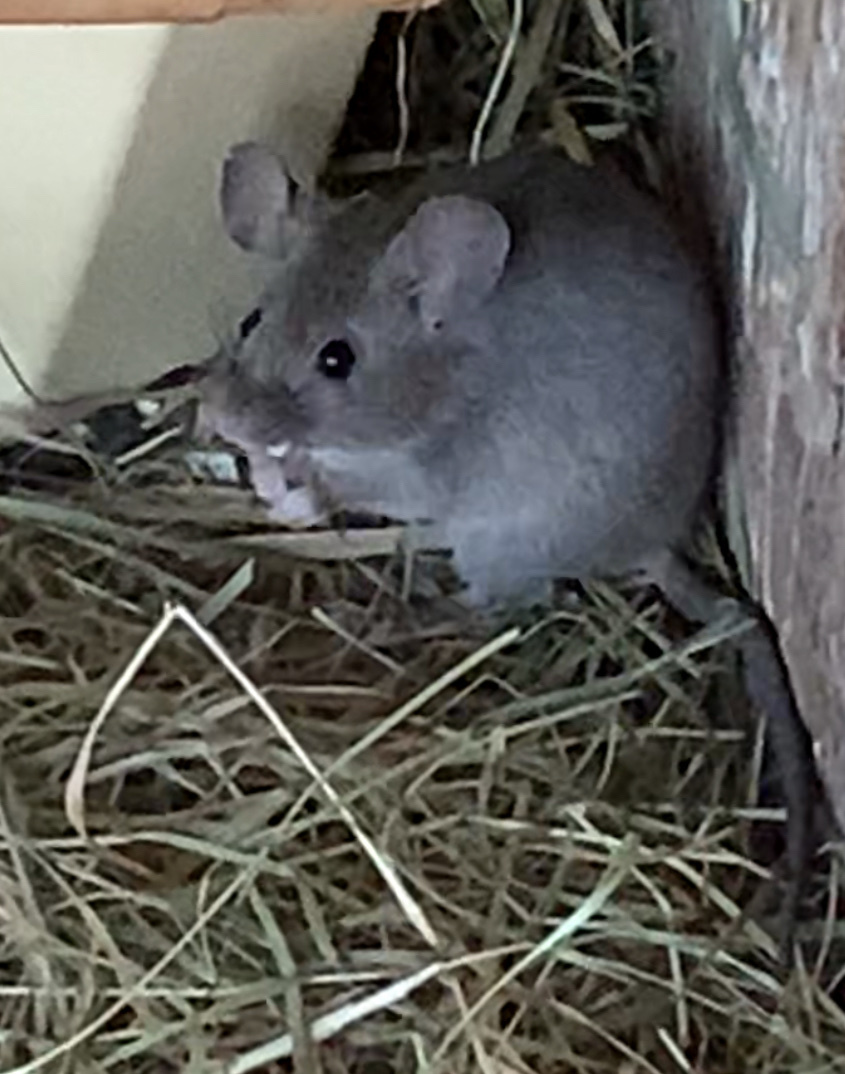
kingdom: Animalia
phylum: Chordata
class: Mammalia
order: Rodentia
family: Muridae
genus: Mus
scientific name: Mus musculus
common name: House mouse
